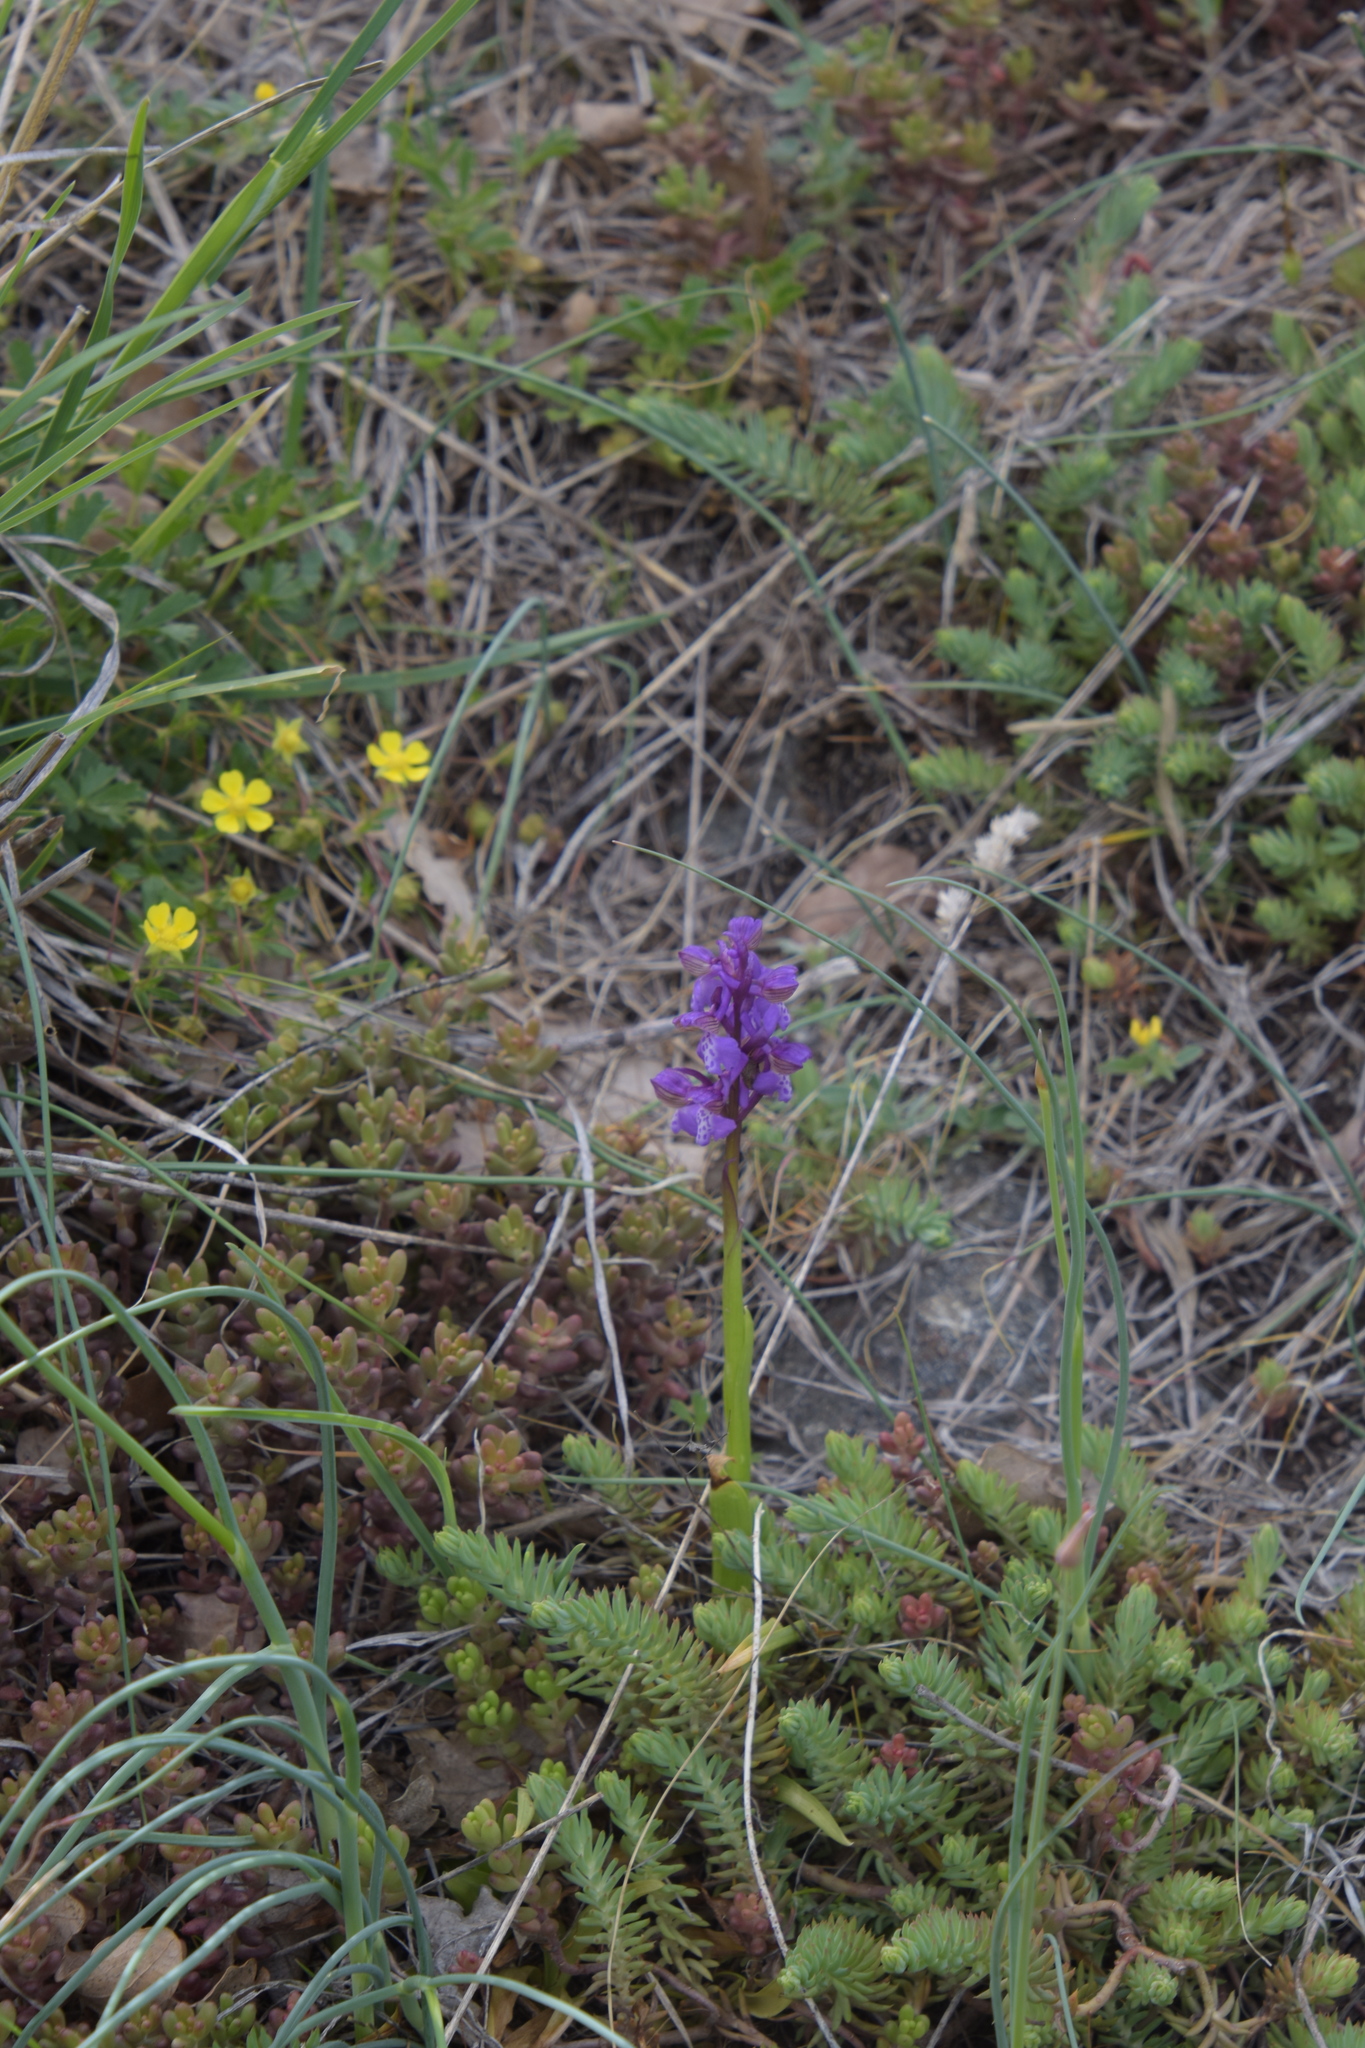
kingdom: Plantae
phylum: Tracheophyta
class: Liliopsida
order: Asparagales
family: Orchidaceae
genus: Anacamptis
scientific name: Anacamptis morio
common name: Green-winged orchid
